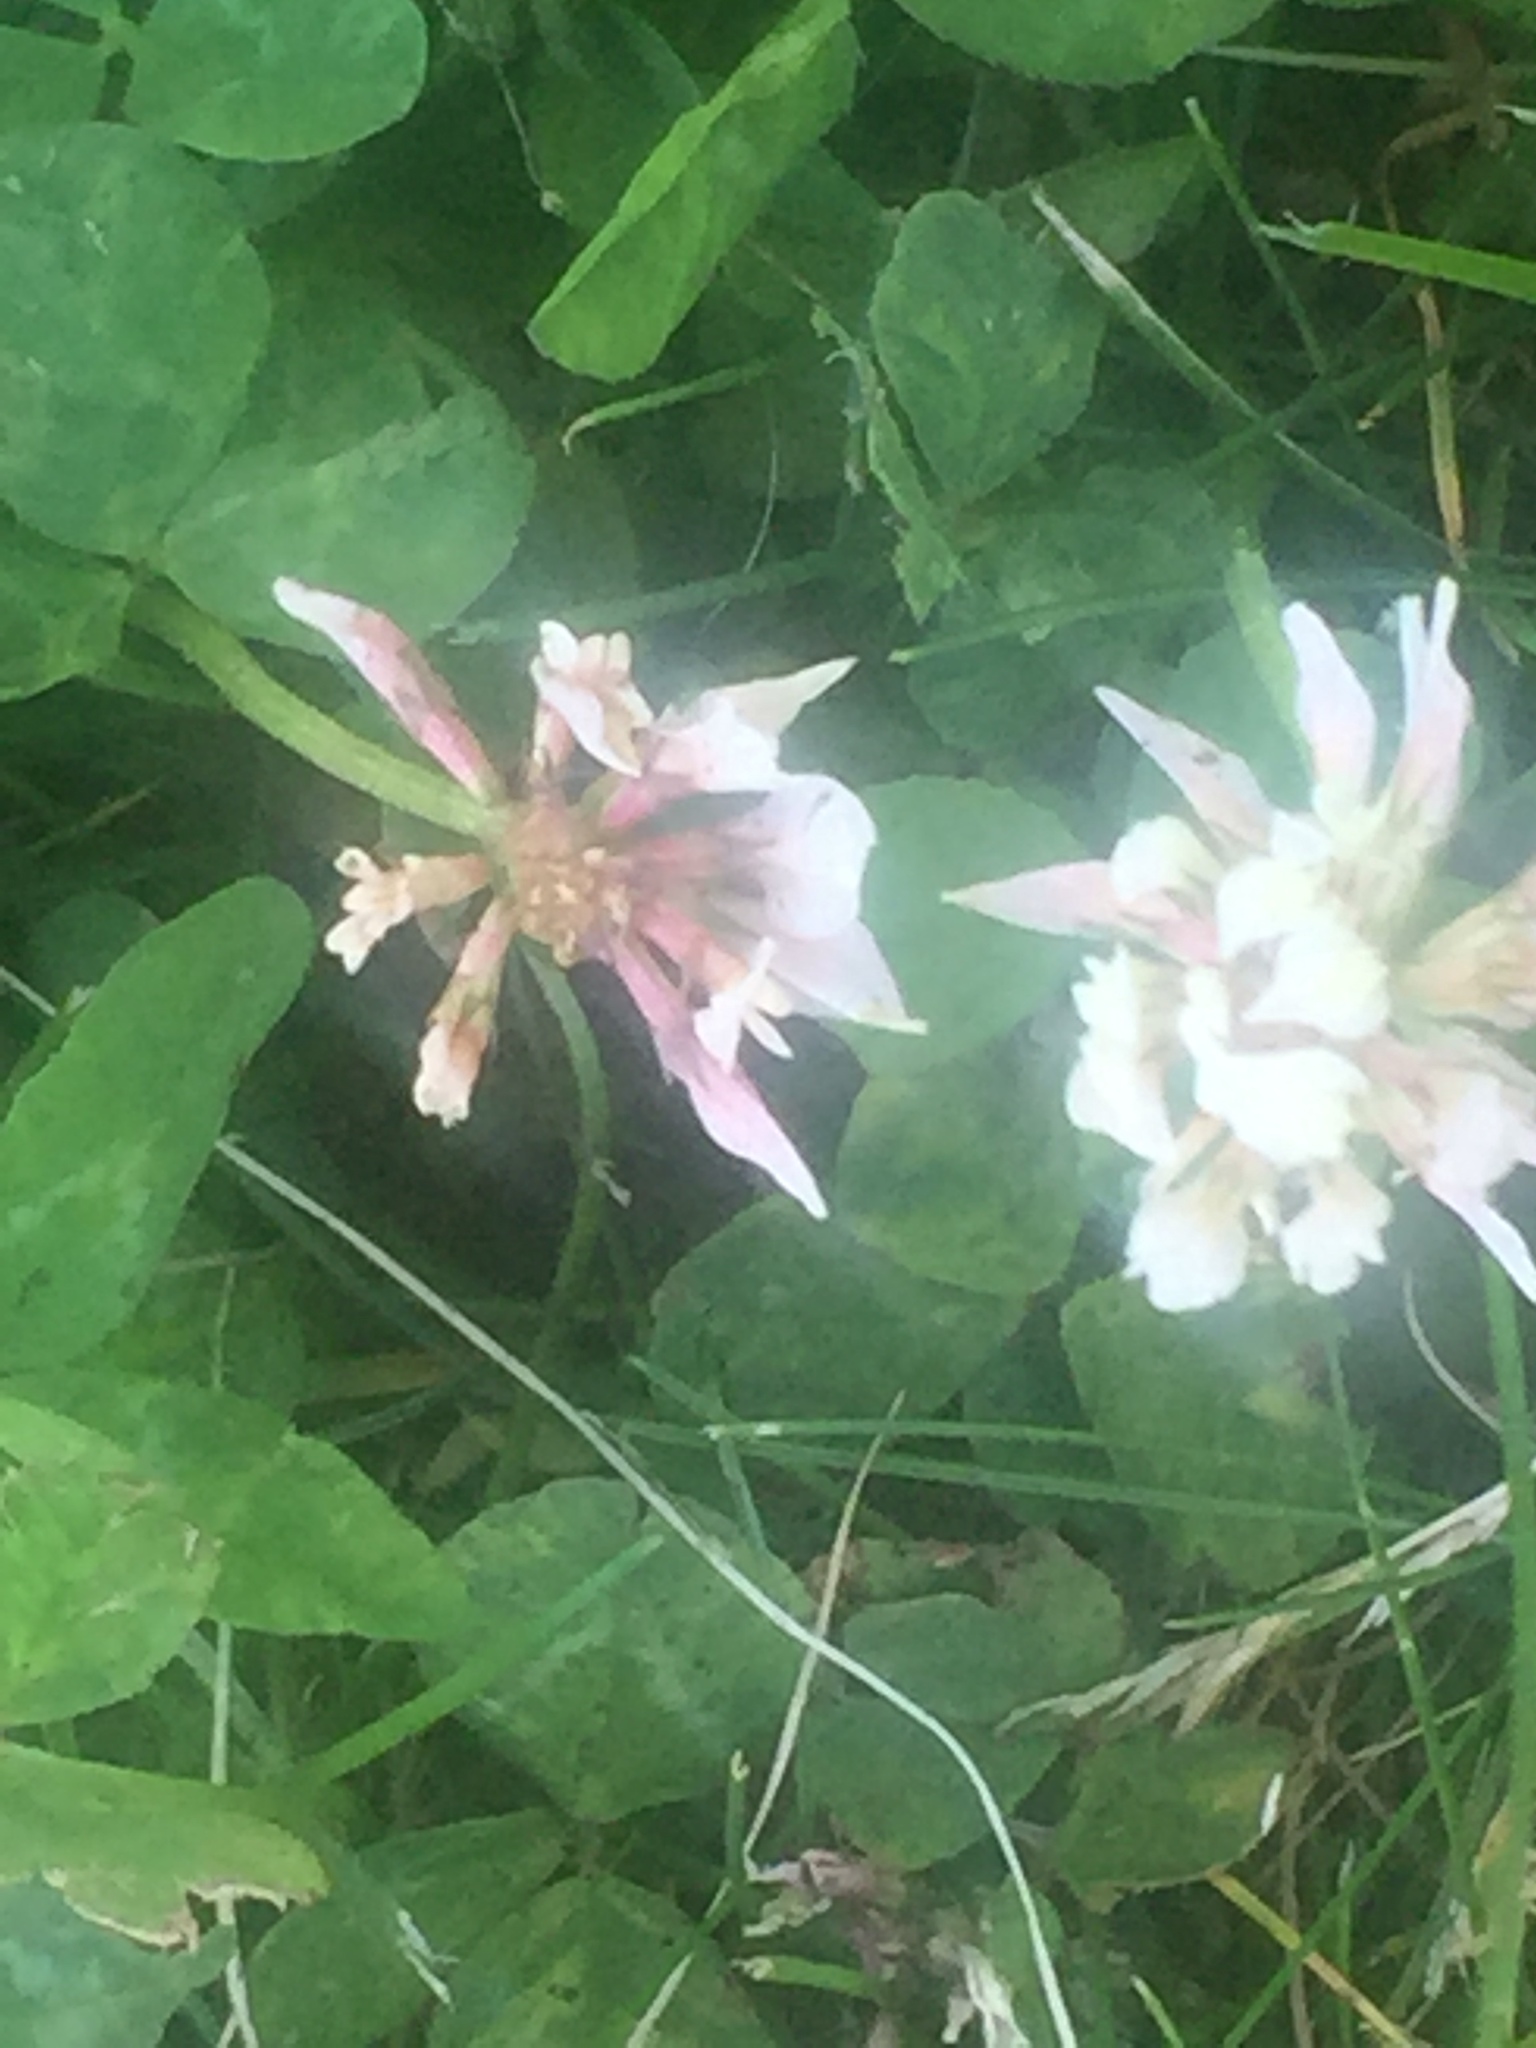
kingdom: Plantae
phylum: Tracheophyta
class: Magnoliopsida
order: Fabales
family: Fabaceae
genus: Trifolium
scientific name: Trifolium hybridum
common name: Alsike clover
